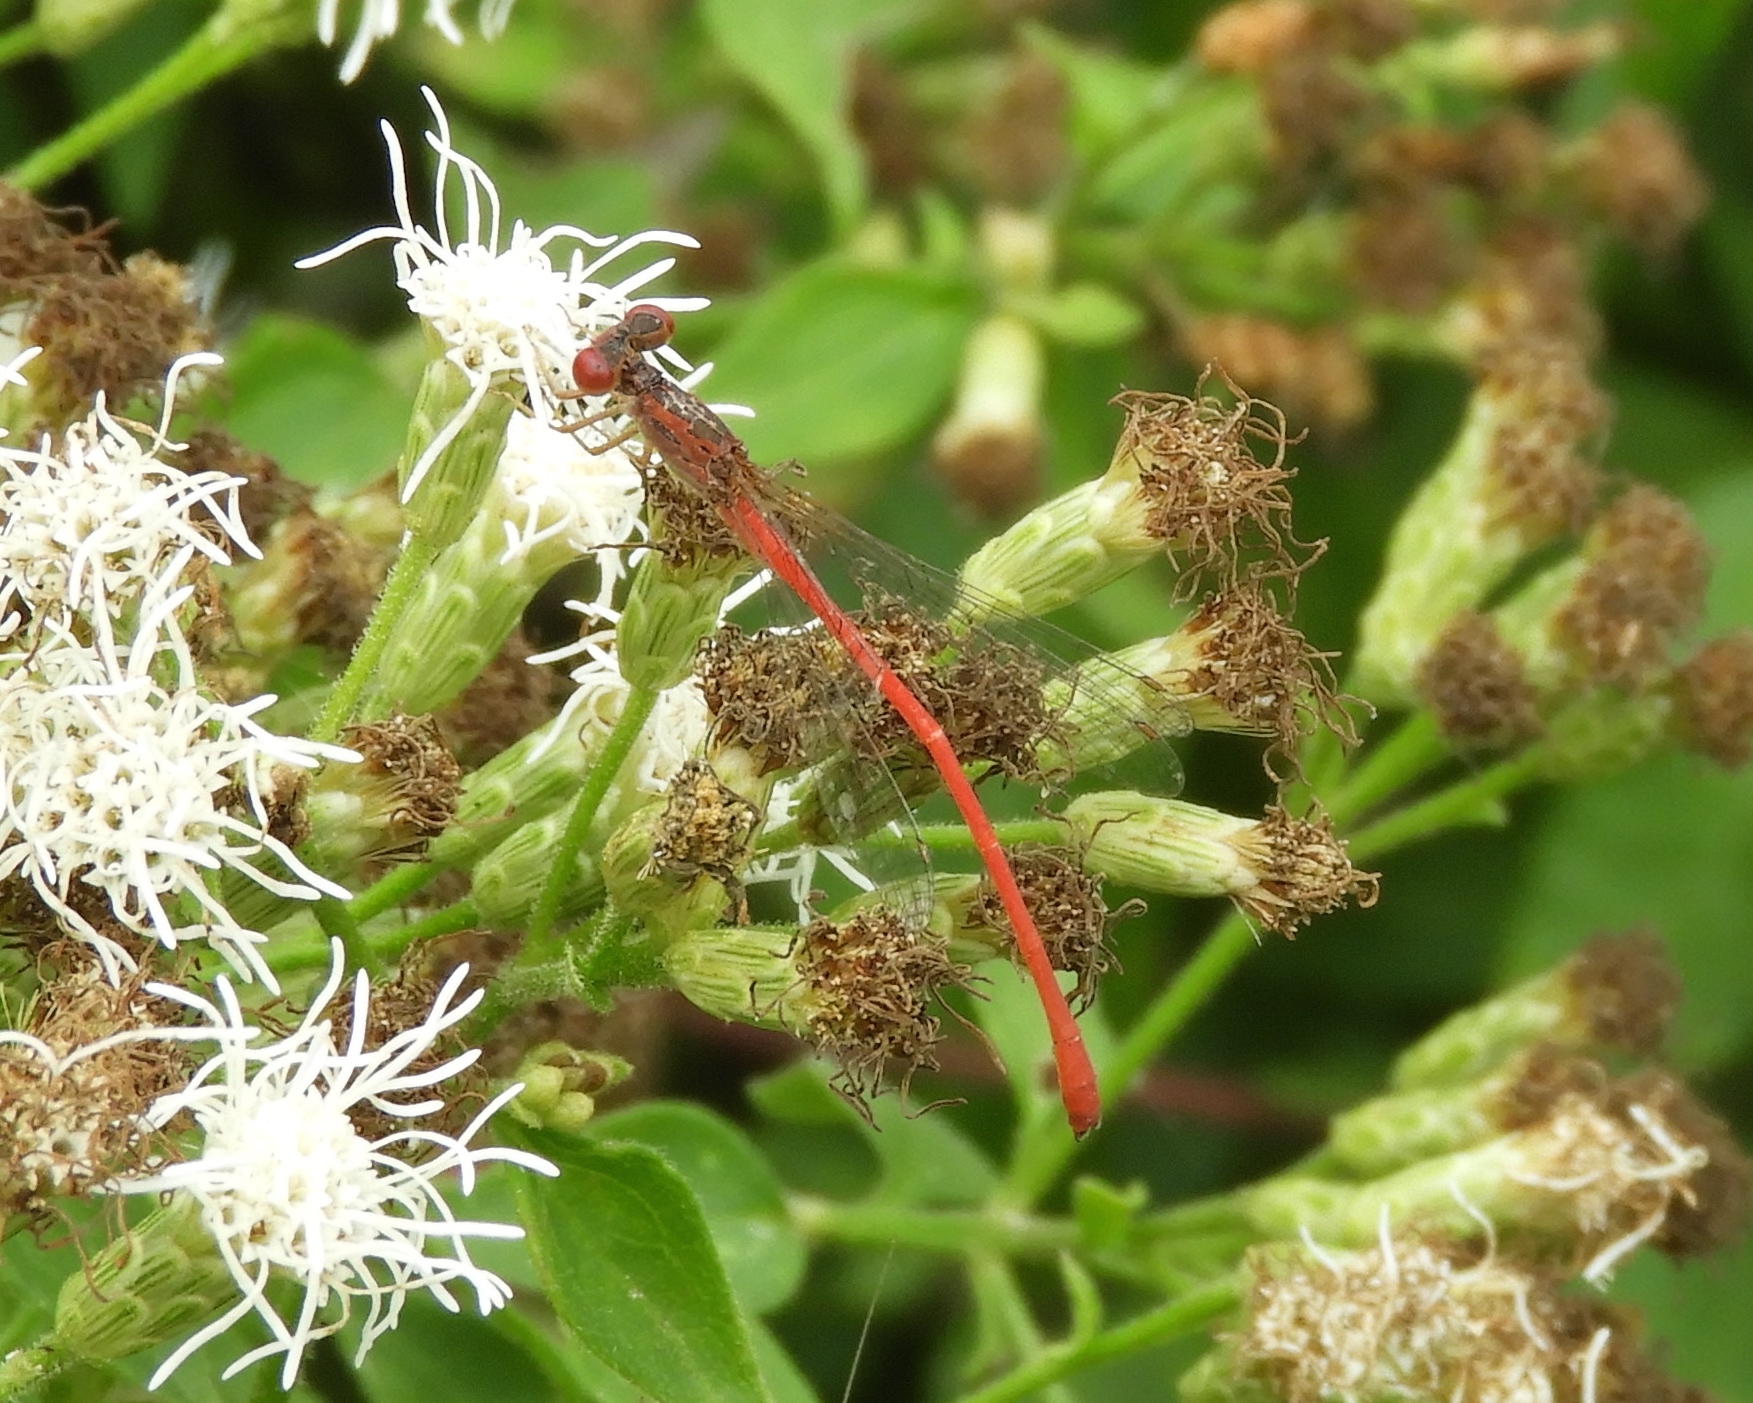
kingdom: Animalia
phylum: Arthropoda
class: Insecta
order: Odonata
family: Coenagrionidae
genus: Telebasis
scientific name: Telebasis salva
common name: Desert firetail
